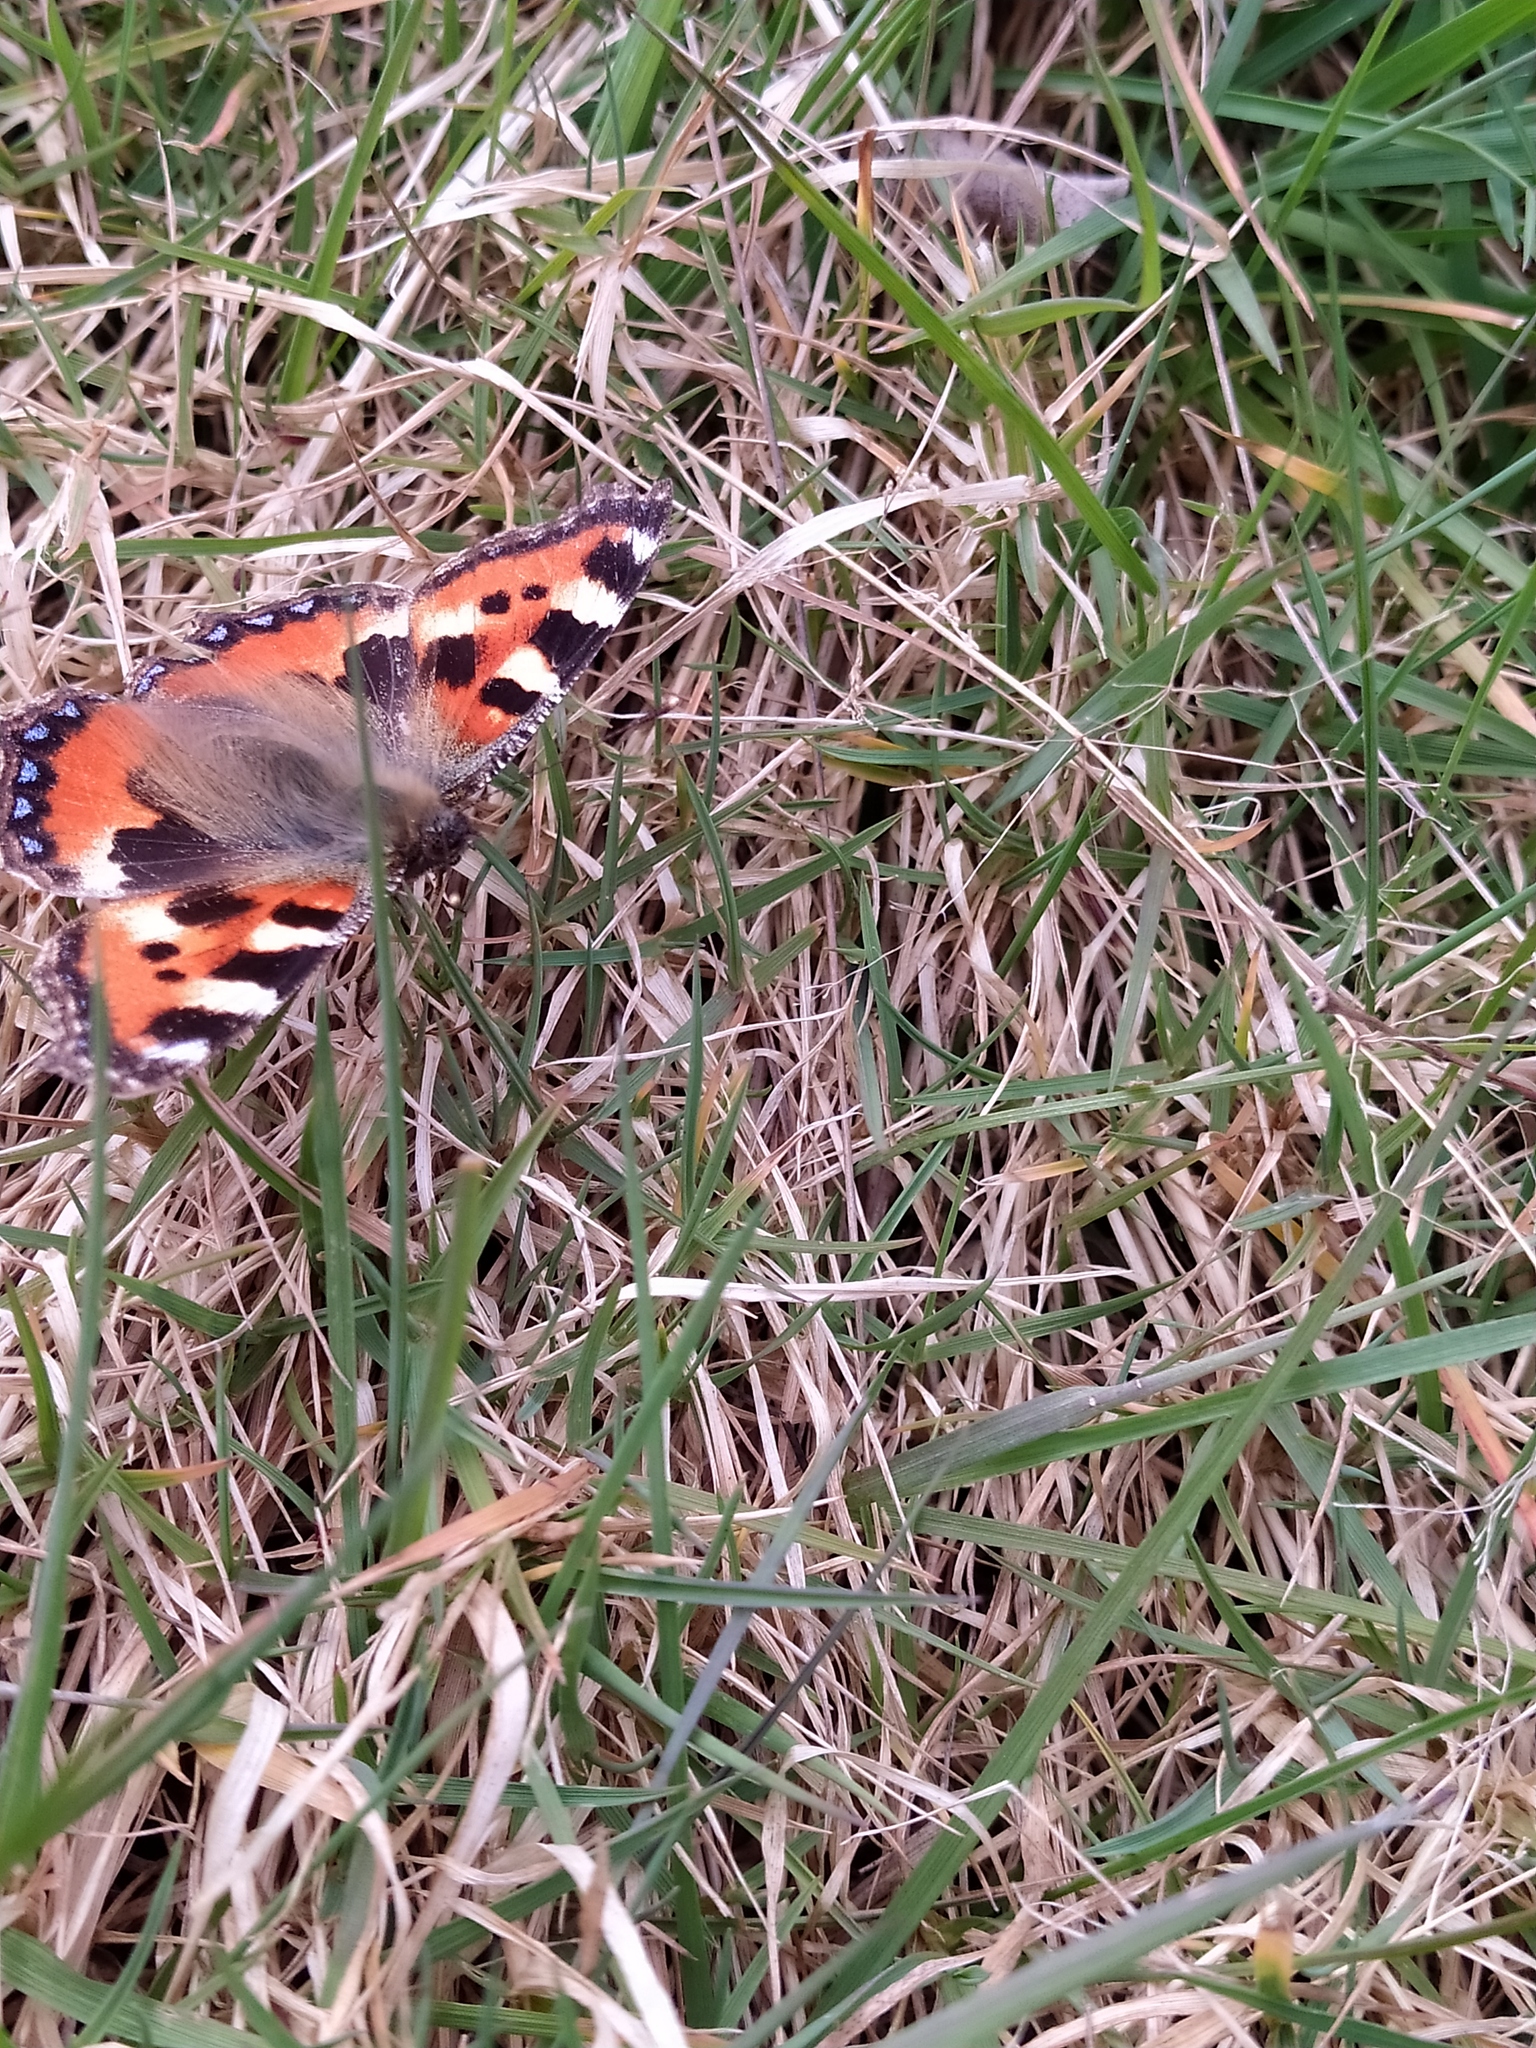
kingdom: Animalia
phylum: Arthropoda
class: Insecta
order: Lepidoptera
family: Nymphalidae
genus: Aglais
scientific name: Aglais urticae
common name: Small tortoiseshell
